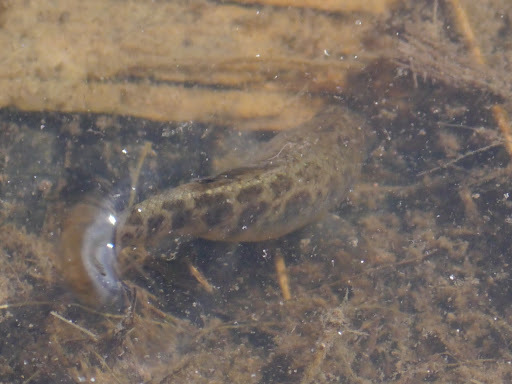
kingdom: Animalia
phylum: Chordata
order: Cyprinodontiformes
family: Cyprinodontidae
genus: Cyprinodon
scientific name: Cyprinodon variegatus
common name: Sheepshead minnow
